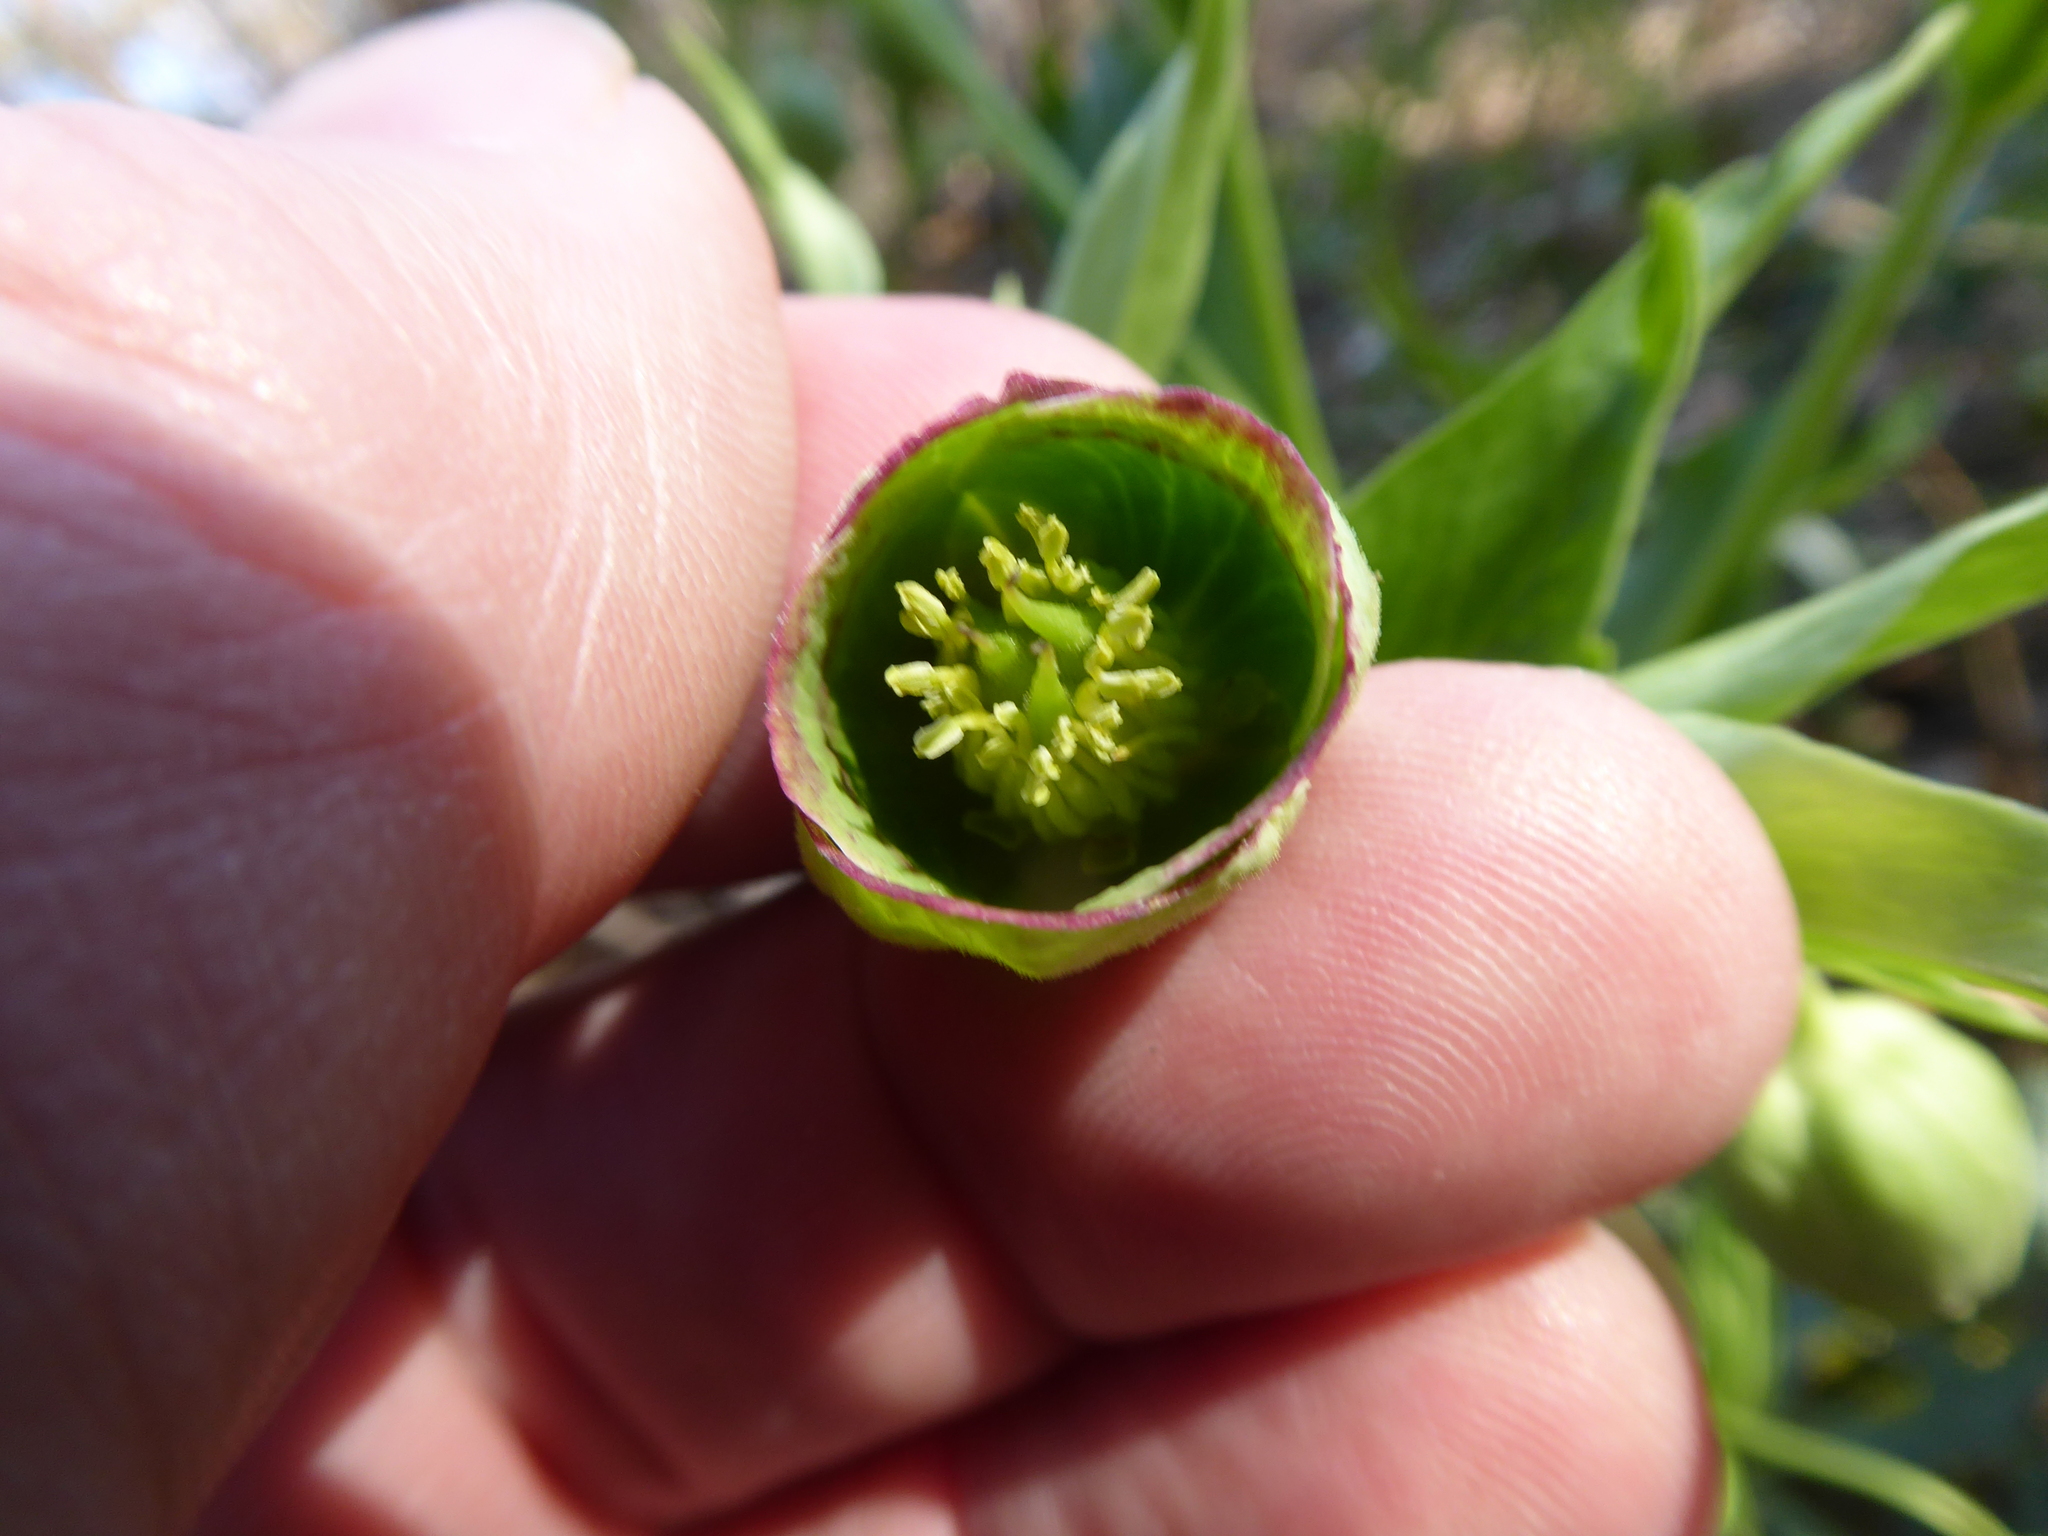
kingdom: Plantae
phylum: Tracheophyta
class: Magnoliopsida
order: Ranunculales
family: Ranunculaceae
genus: Helleborus
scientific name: Helleborus foetidus
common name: Stinking hellebore
